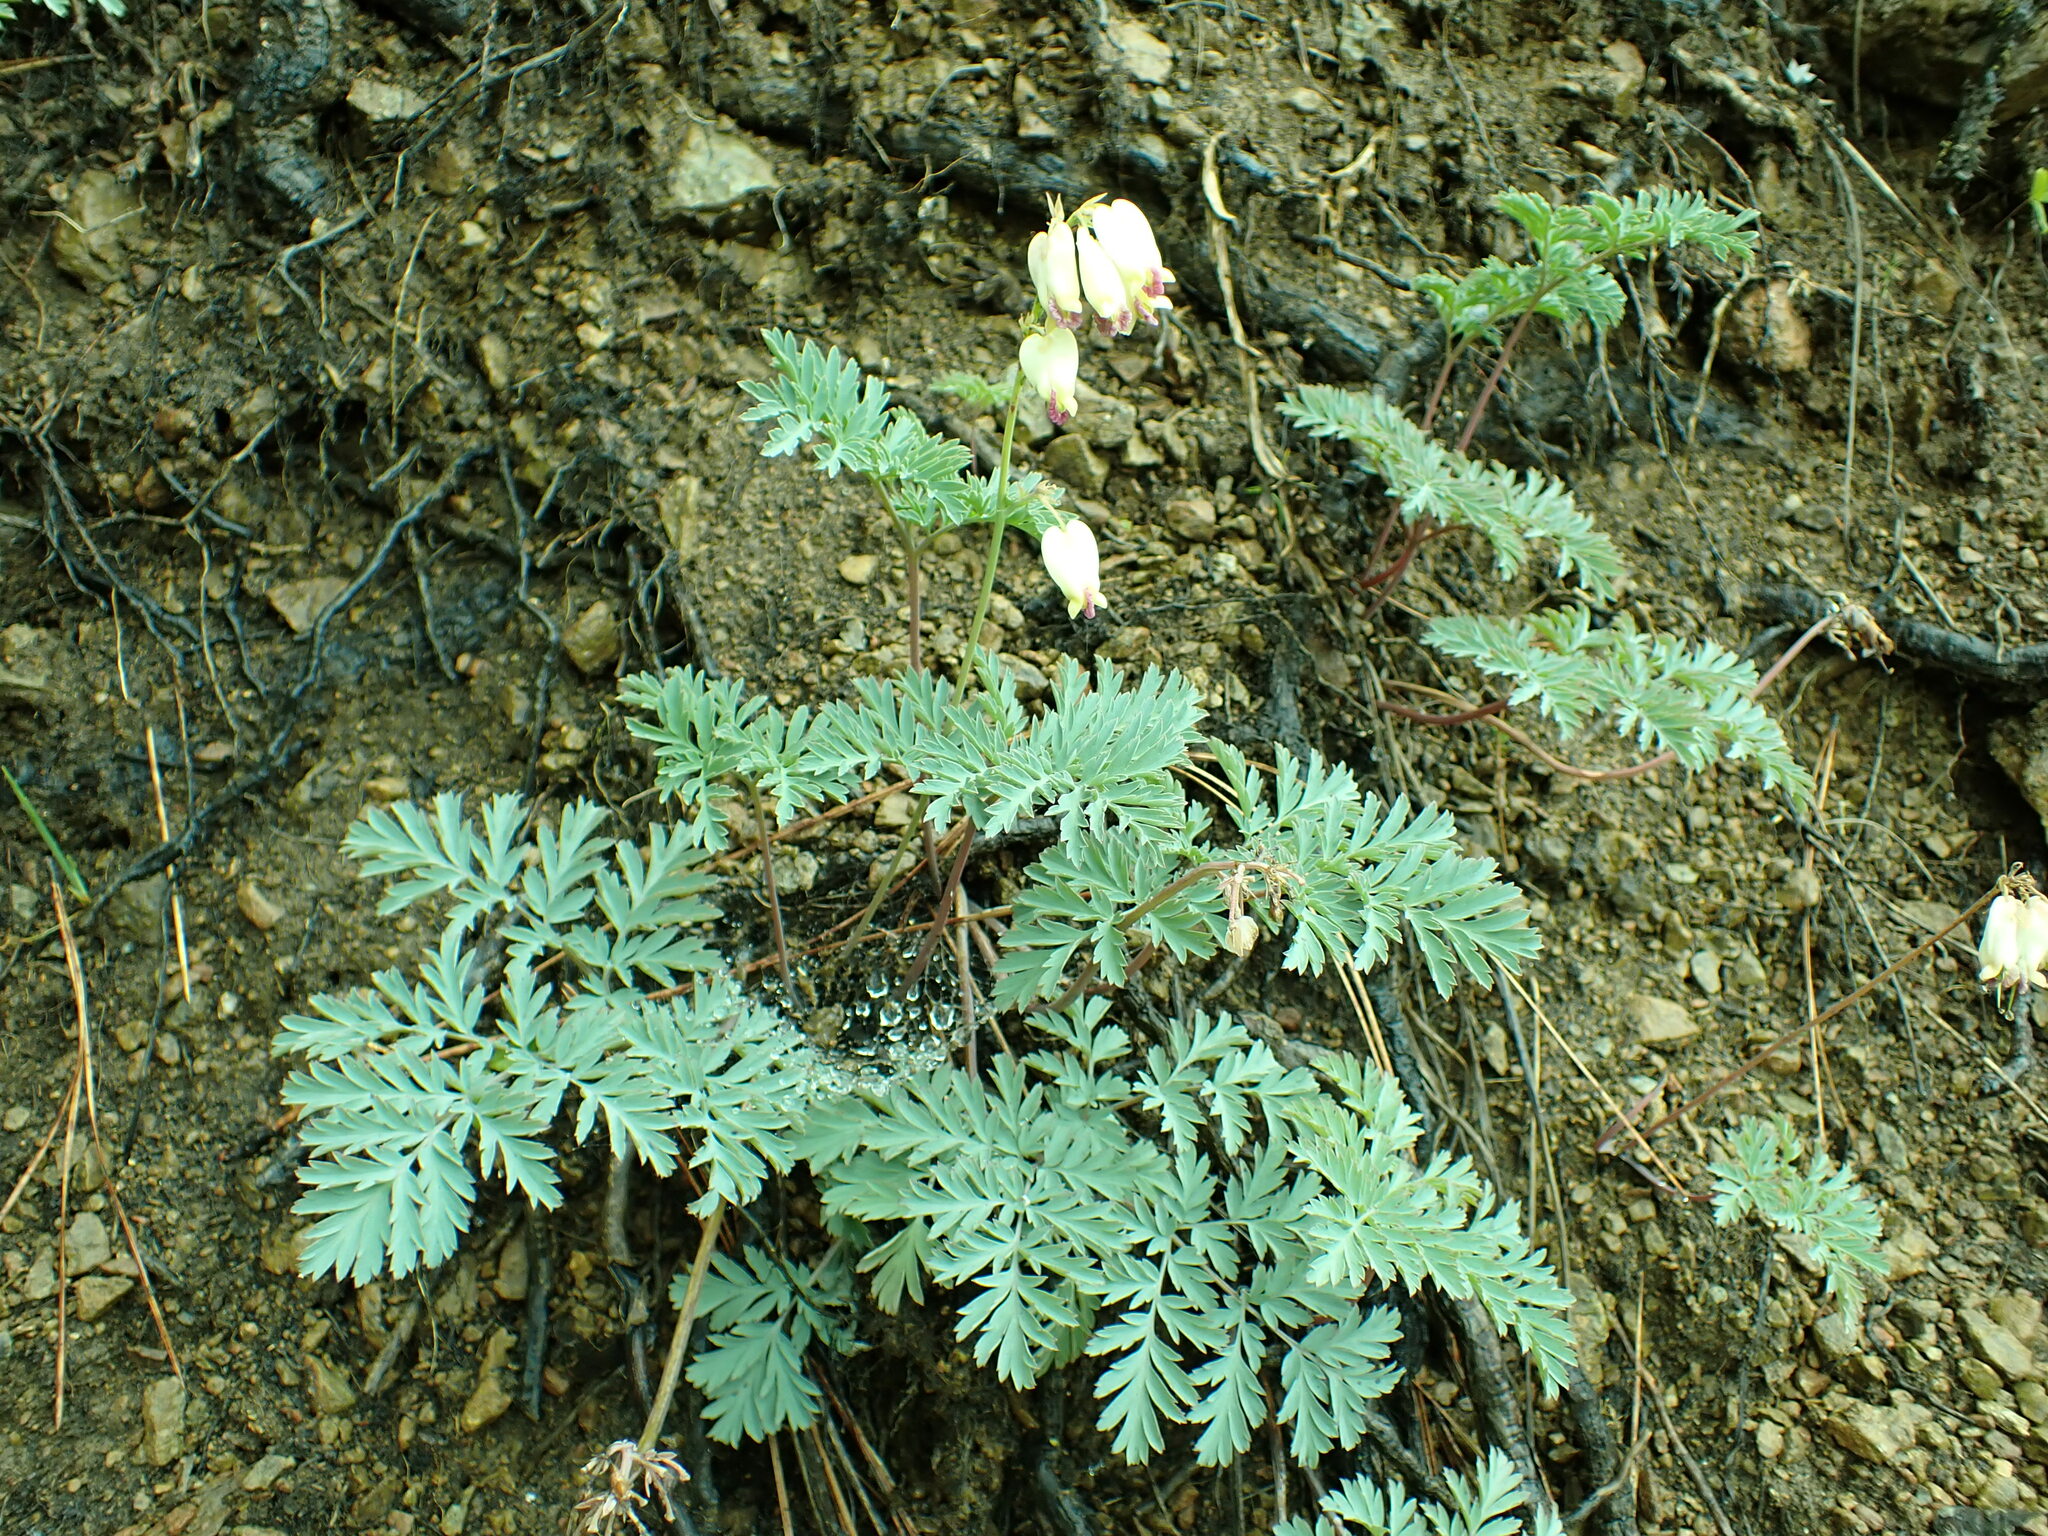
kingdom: Plantae
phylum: Tracheophyta
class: Magnoliopsida
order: Ranunculales
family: Papaveraceae
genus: Dicentra
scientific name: Dicentra formosa
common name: Bleeding-heart
